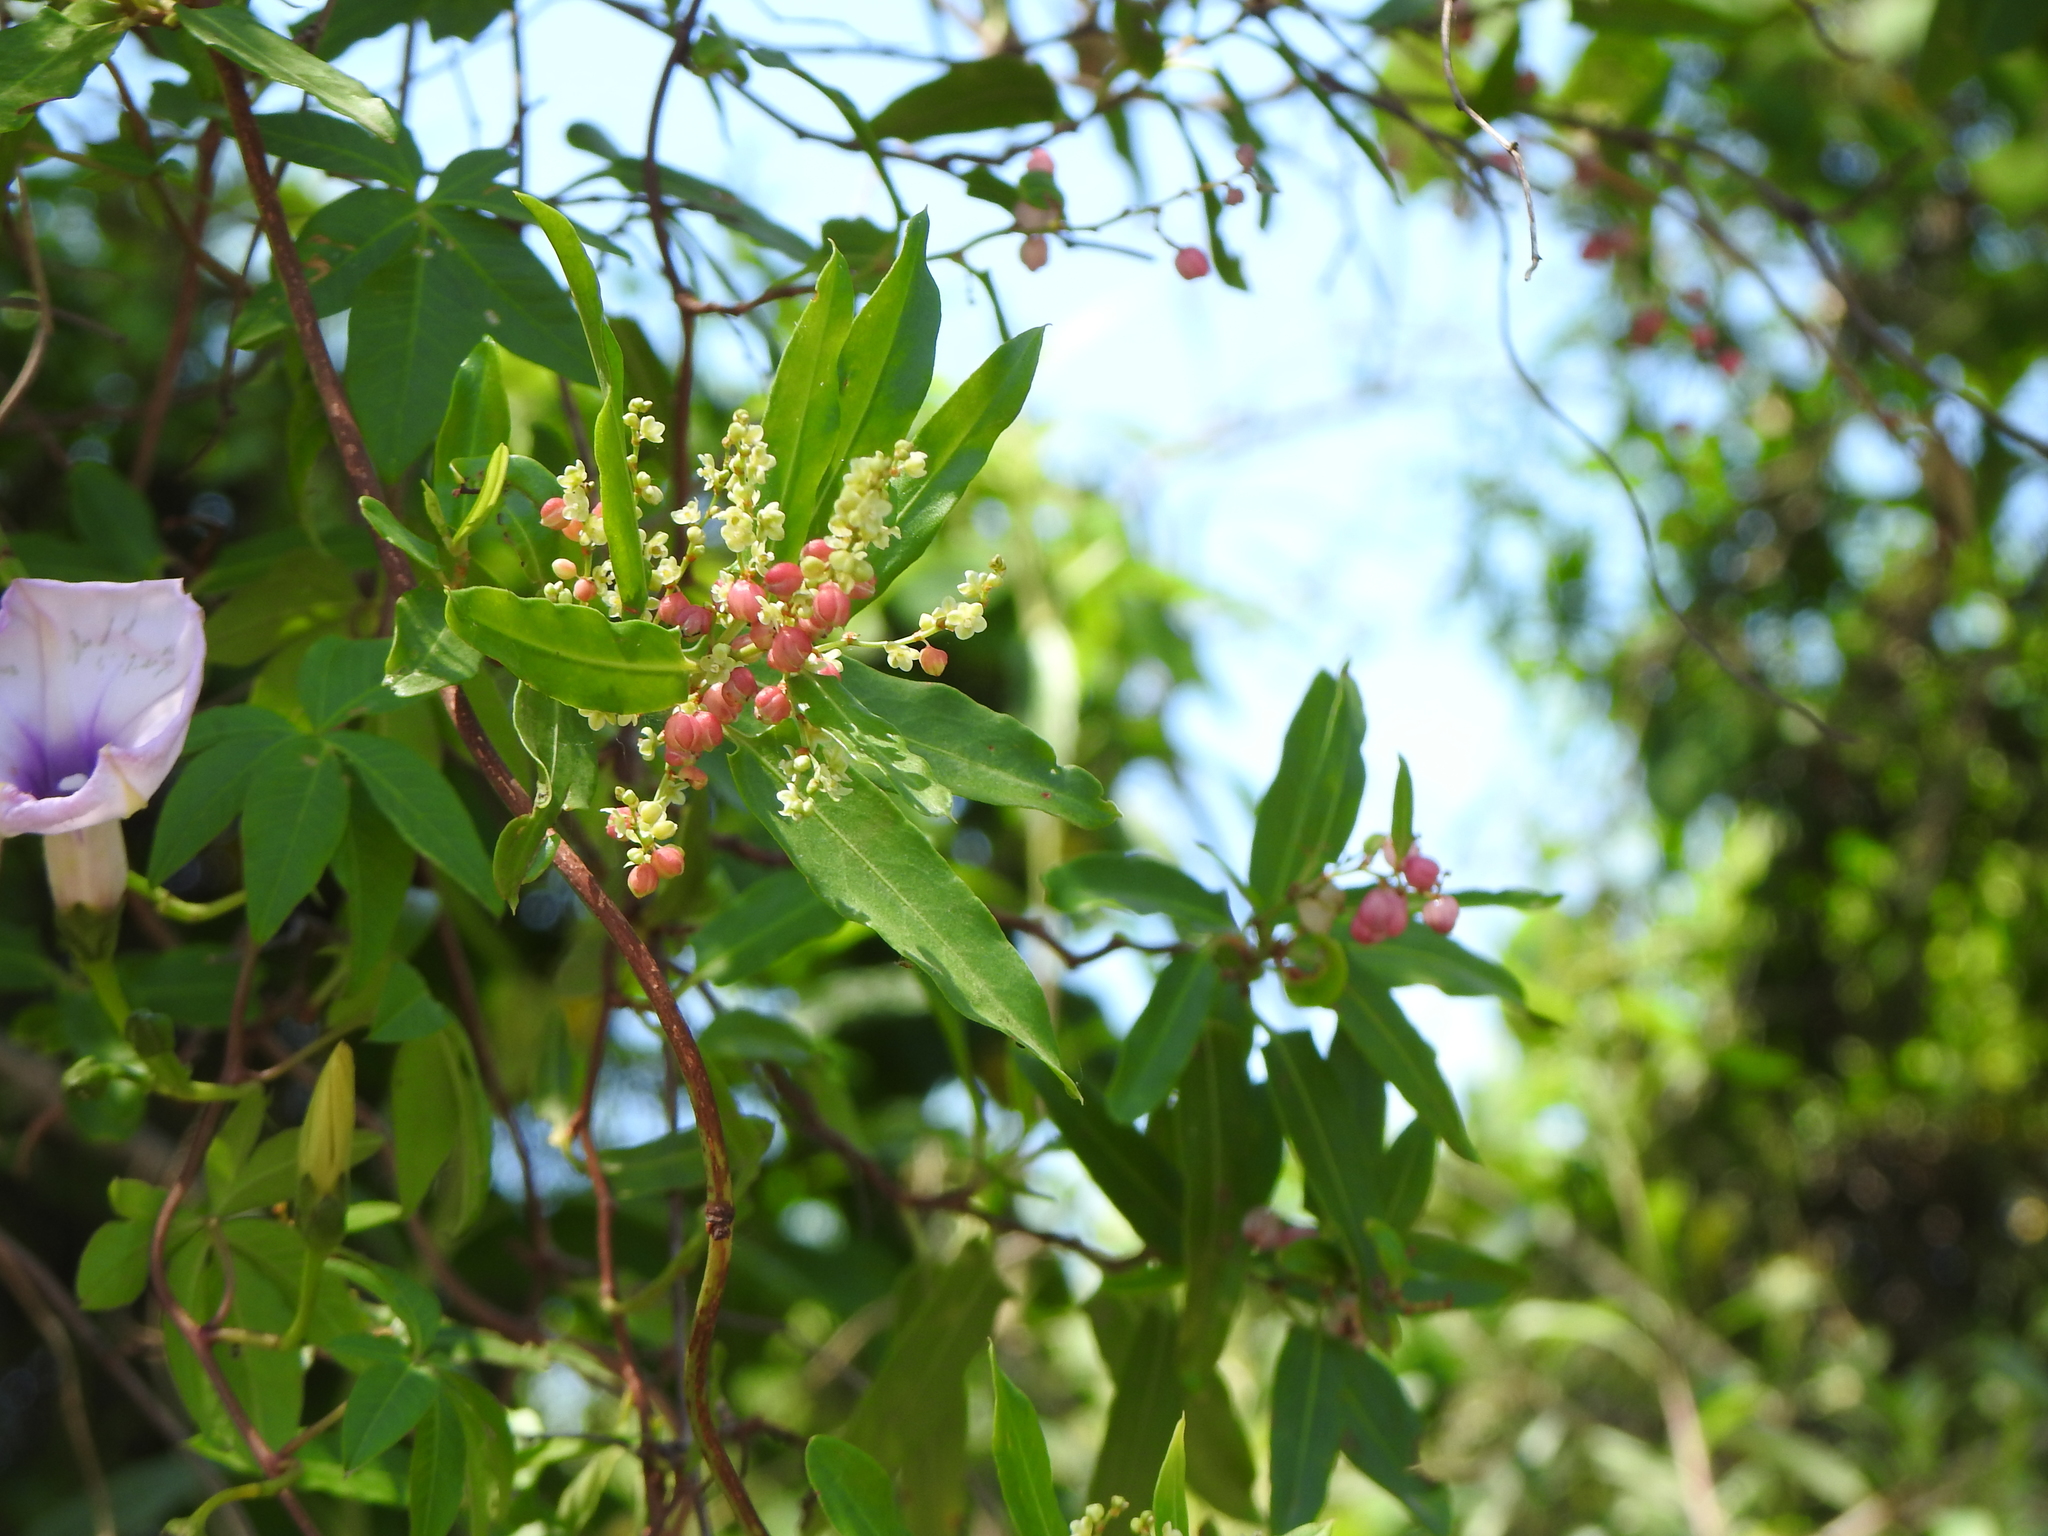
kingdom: Plantae
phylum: Tracheophyta
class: Magnoliopsida
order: Caryophyllales
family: Polygonaceae
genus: Muehlenbeckia
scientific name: Muehlenbeckia sagittifolia
